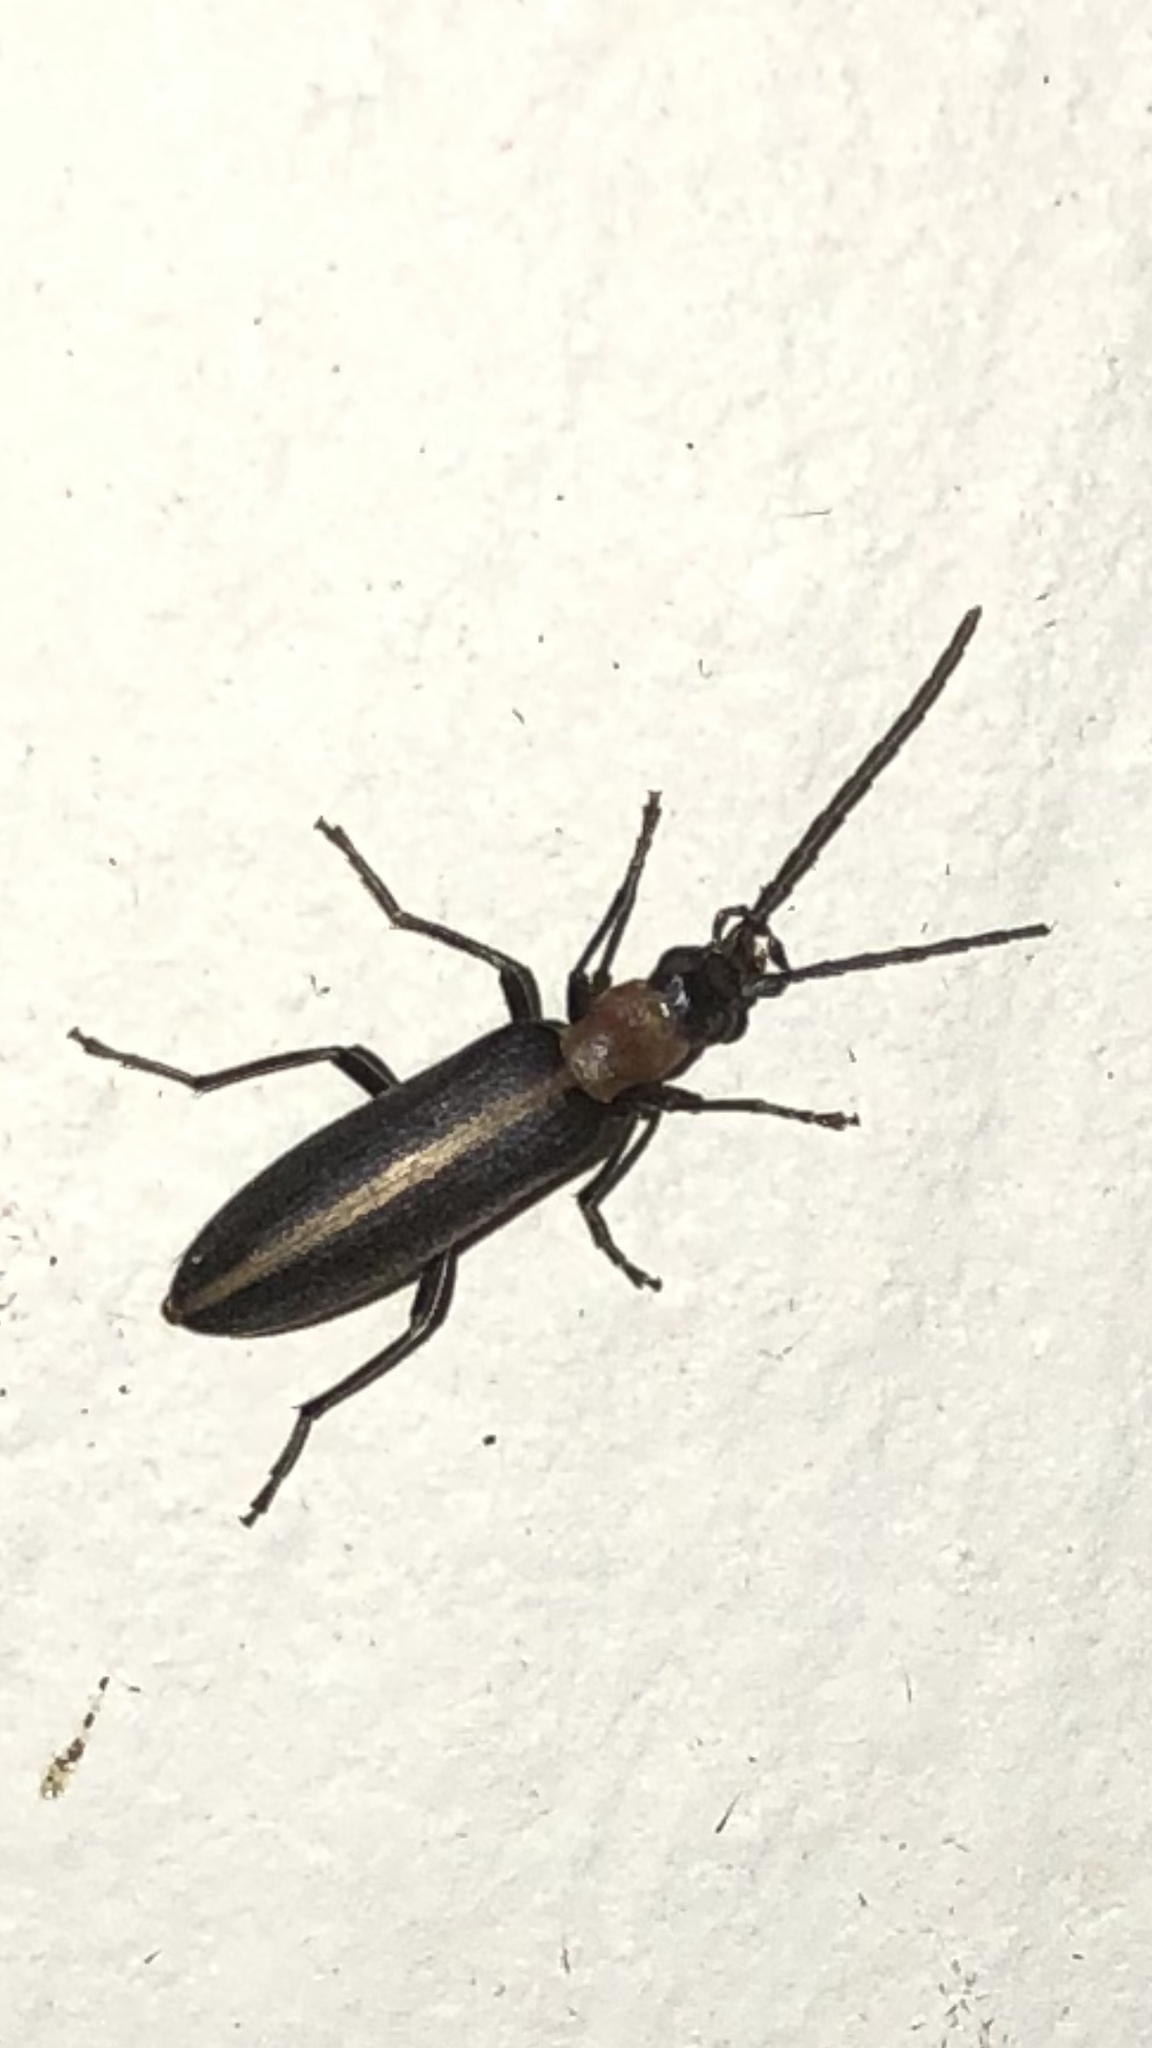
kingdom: Animalia
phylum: Arthropoda
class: Insecta
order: Coleoptera
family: Oedemeridae
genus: Oxycopis
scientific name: Oxycopis mimetica
